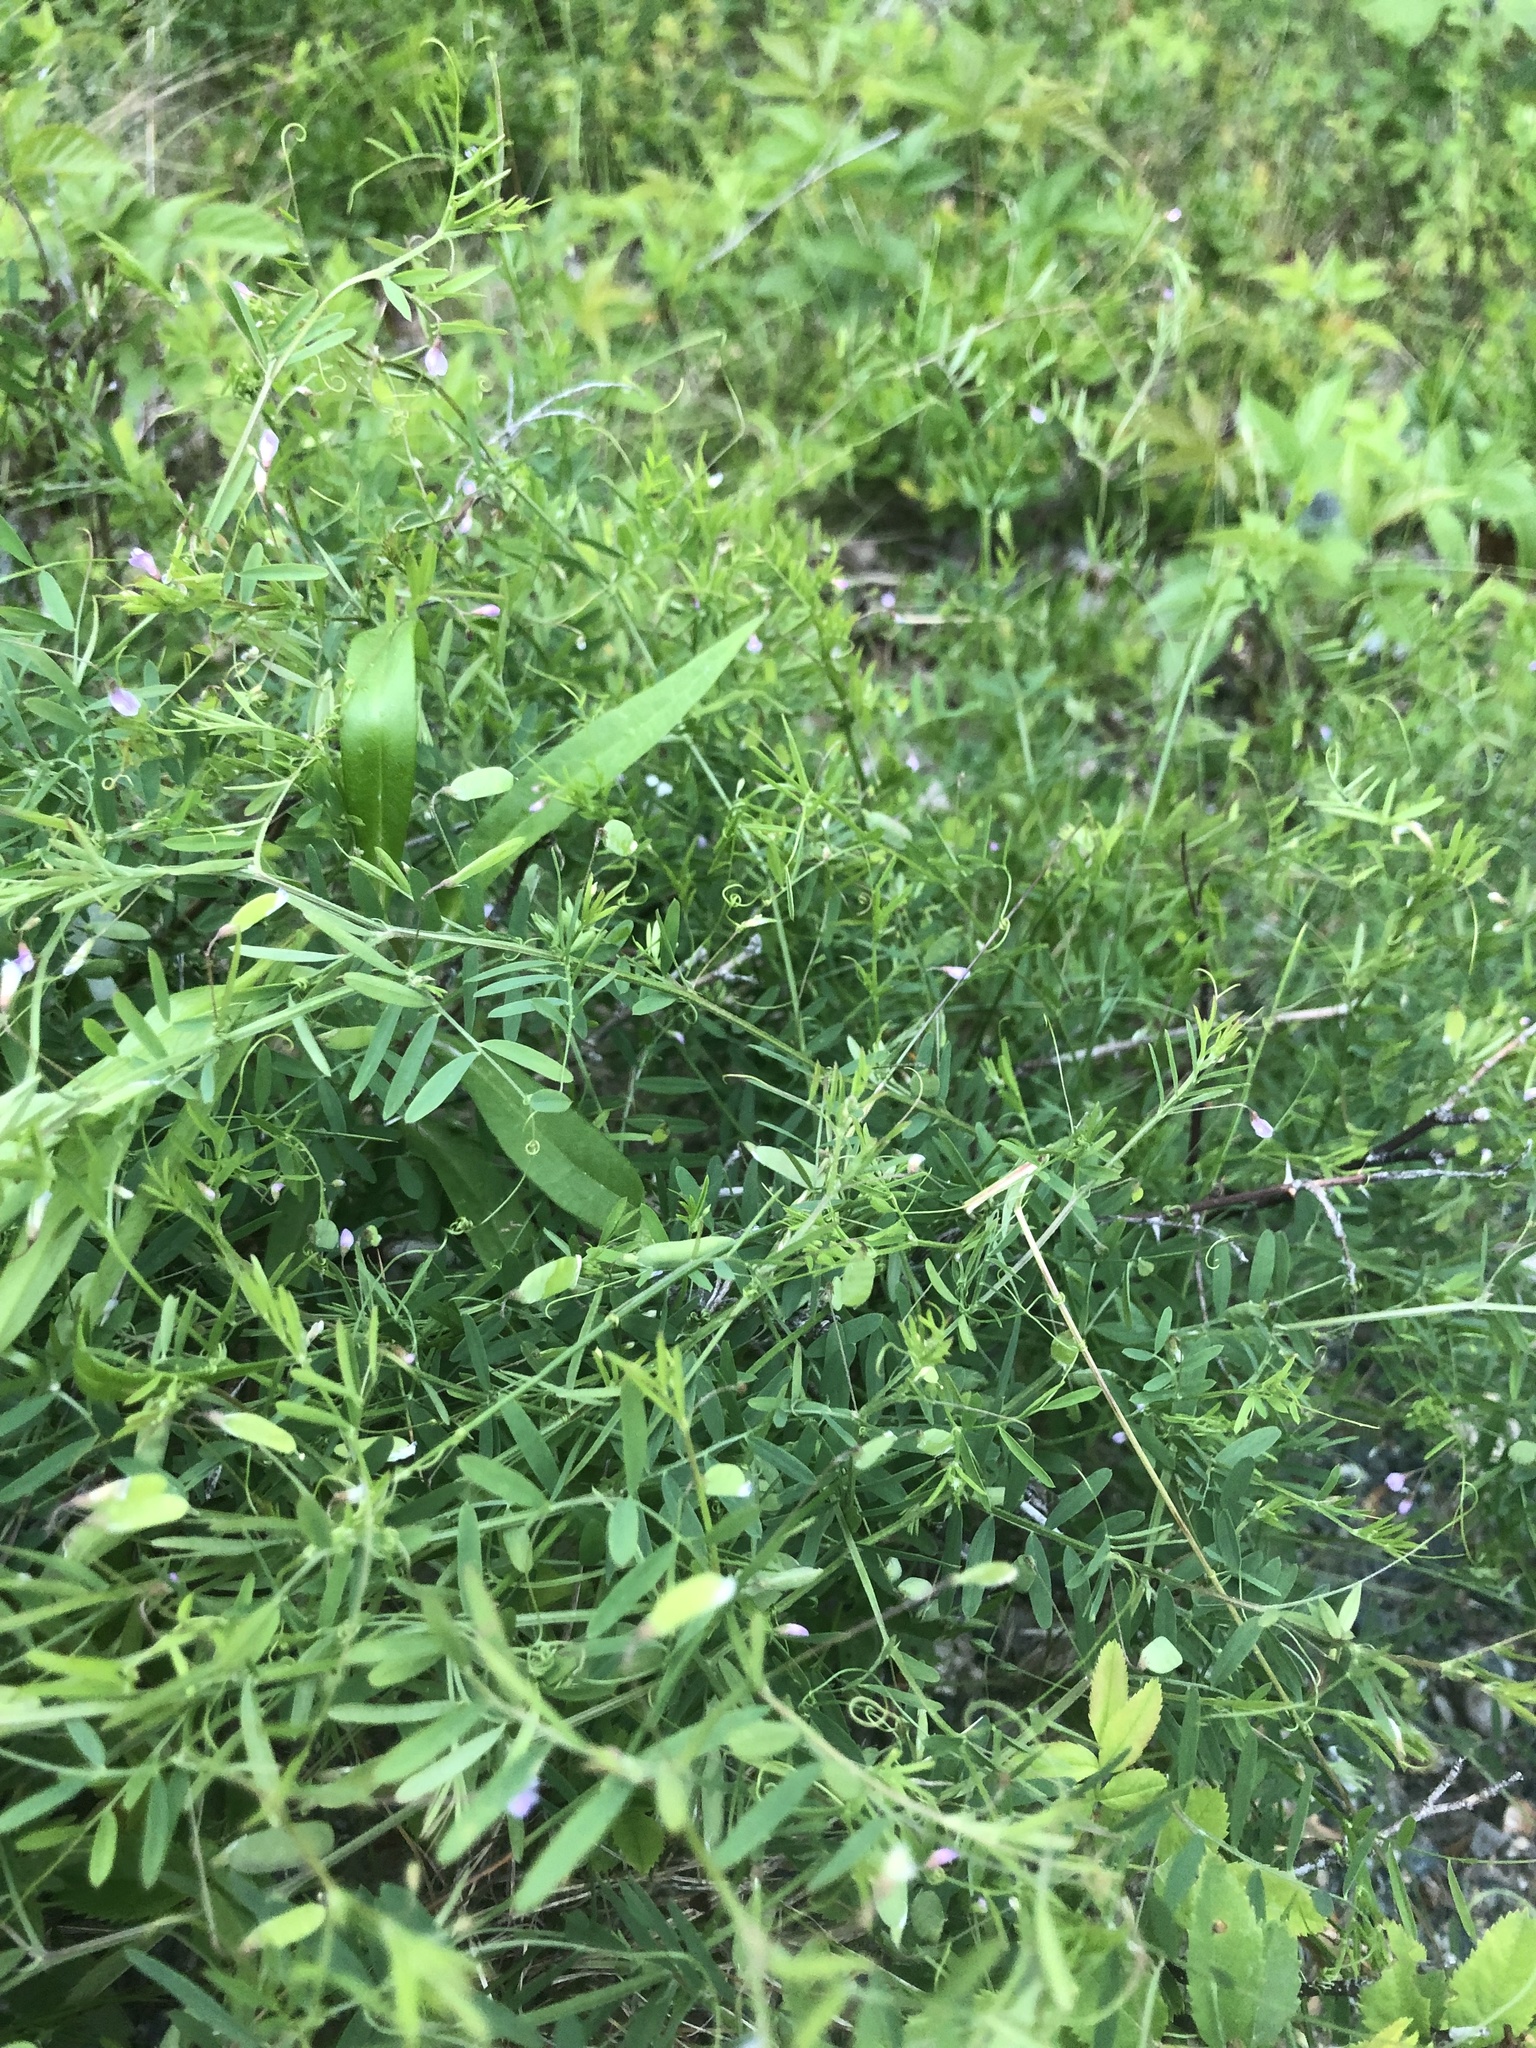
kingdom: Plantae
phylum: Tracheophyta
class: Magnoliopsida
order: Fabales
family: Fabaceae
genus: Vicia
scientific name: Vicia tetrasperma
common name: Smooth tare
